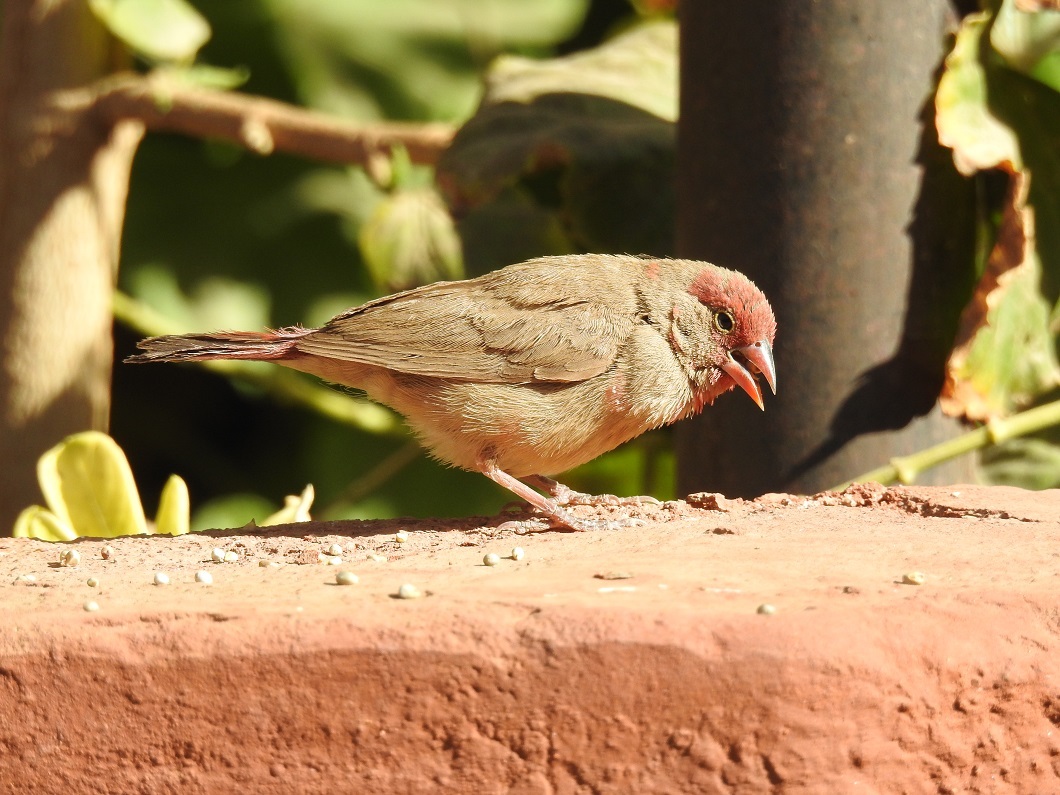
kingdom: Animalia
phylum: Chordata
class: Aves
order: Passeriformes
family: Estrildidae
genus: Lagonosticta
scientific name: Lagonosticta senegala
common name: Red-billed firefinch
